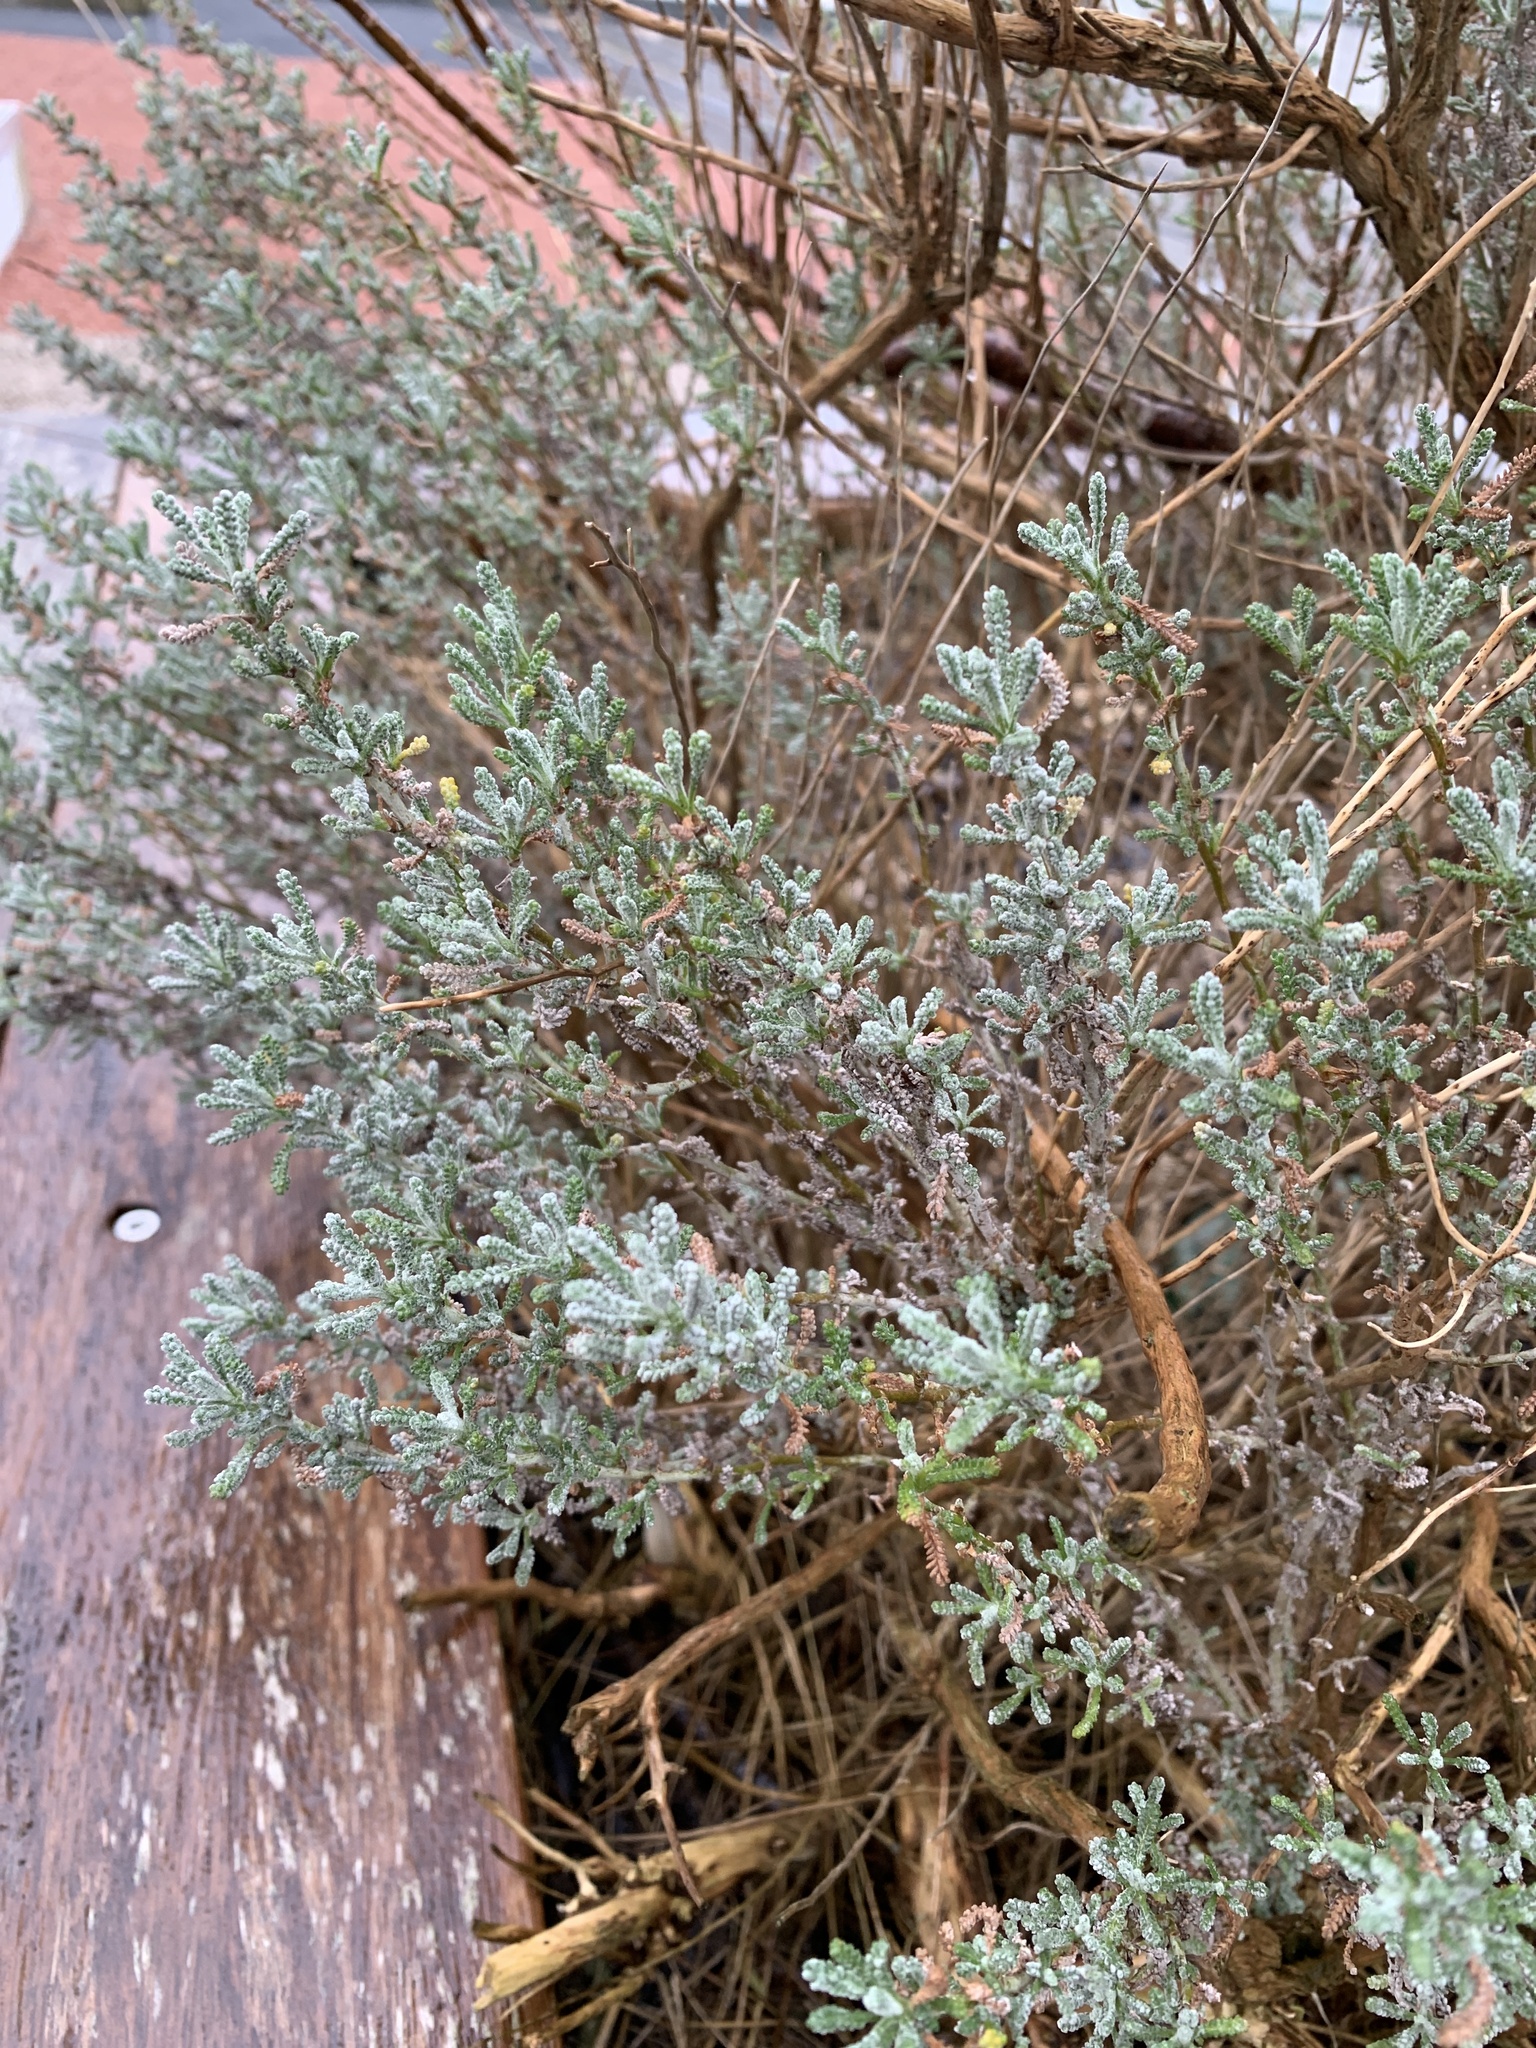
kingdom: Plantae
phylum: Tracheophyta
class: Magnoliopsida
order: Asterales
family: Asteraceae
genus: Santolina
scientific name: Santolina chamaecyparissus
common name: Lavender-cotton
